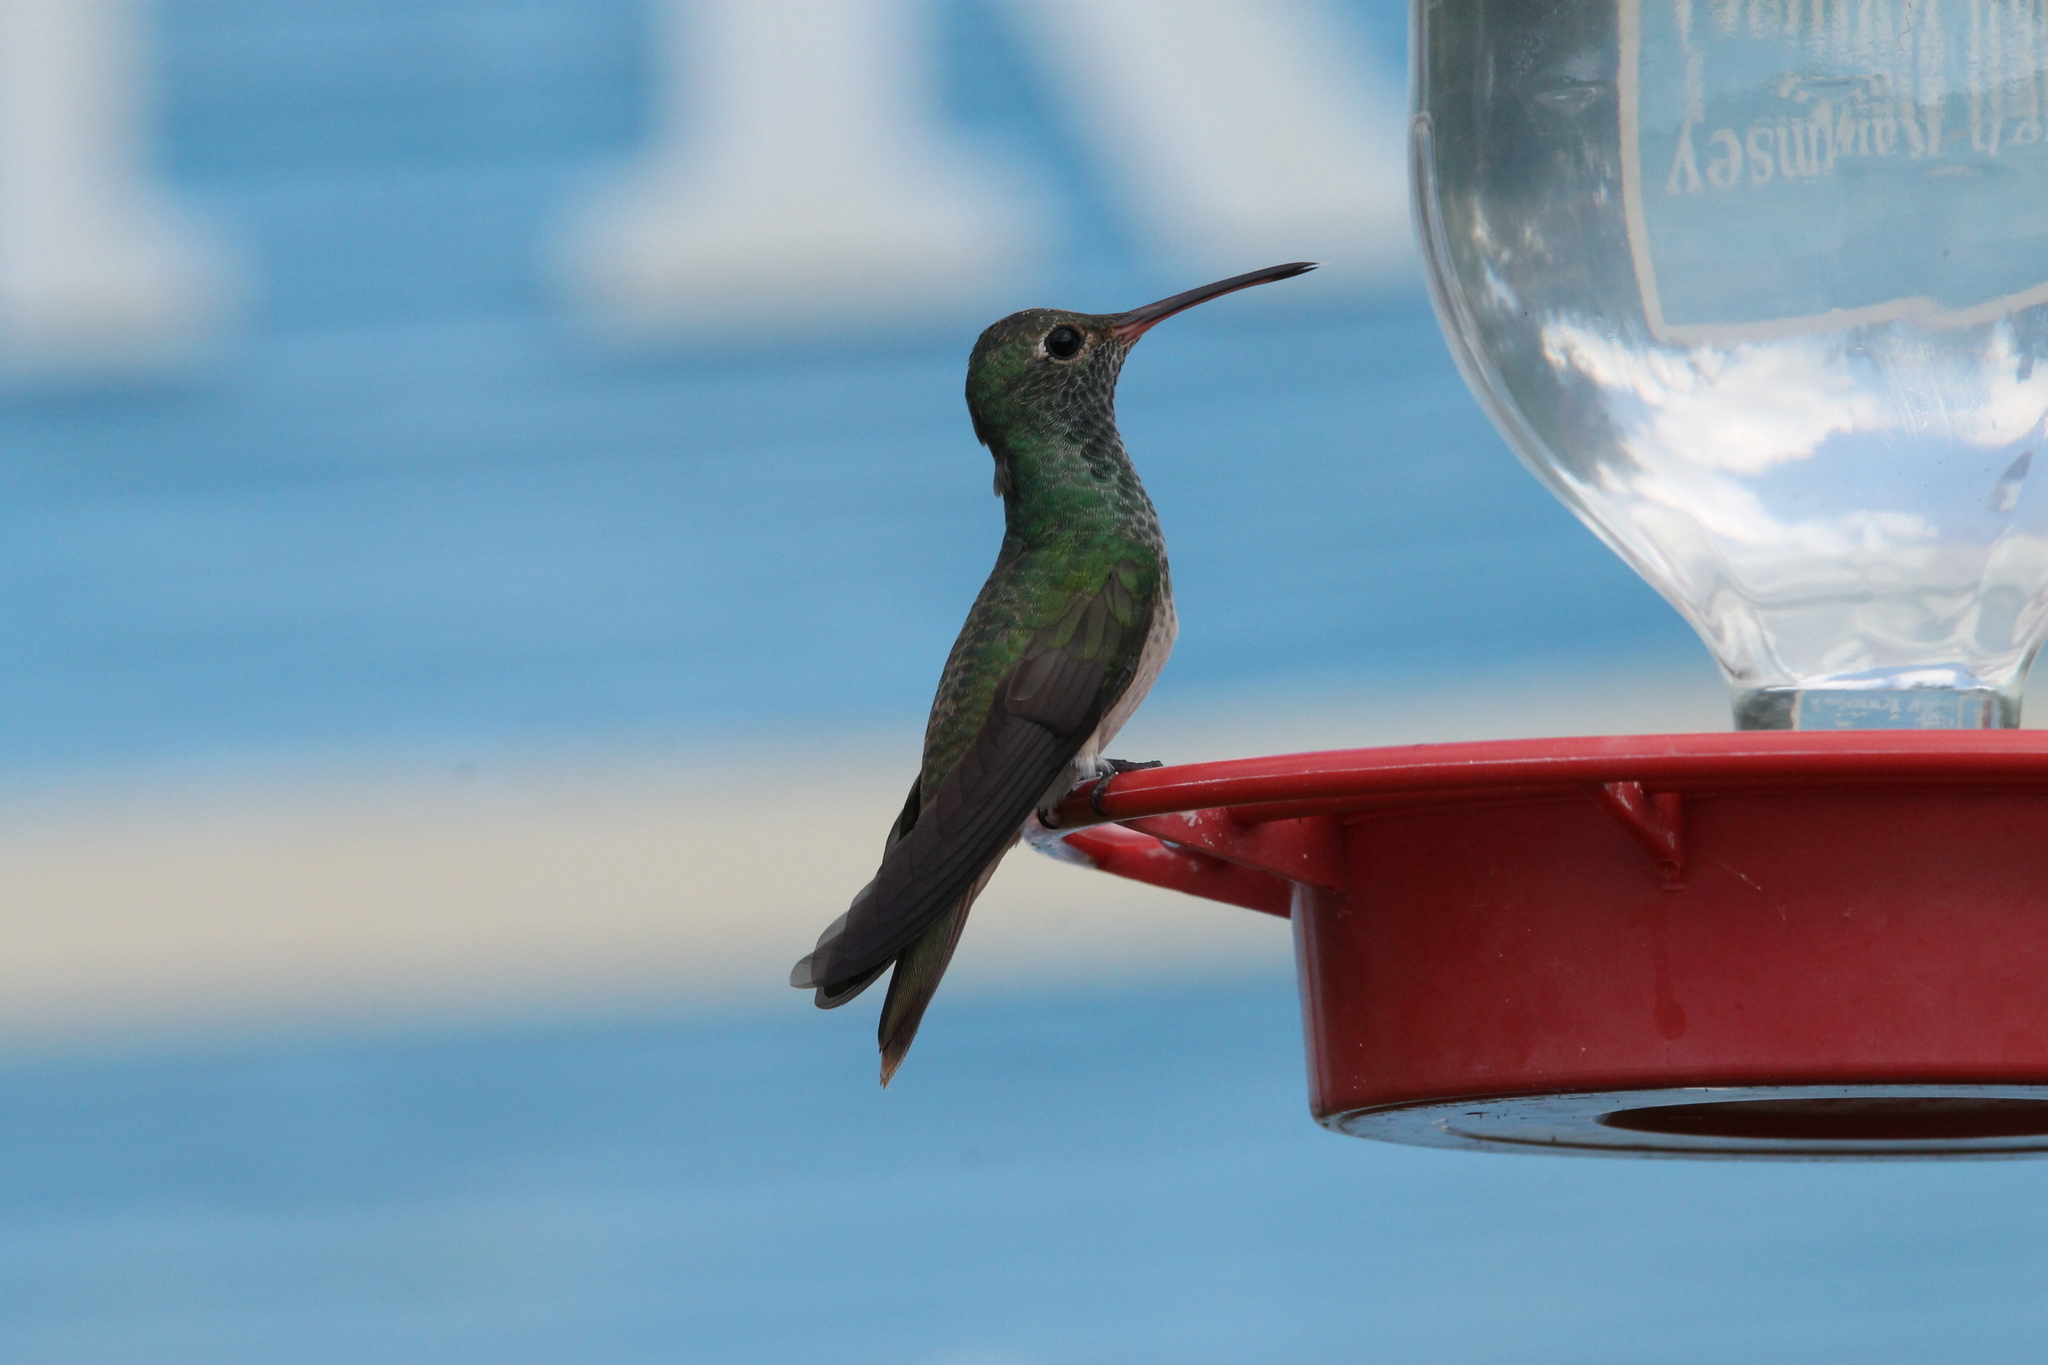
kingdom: Animalia
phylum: Chordata
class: Aves
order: Apodiformes
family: Trochilidae
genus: Amazilia
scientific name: Amazilia yucatanensis
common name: Buff-bellied hummingbird
